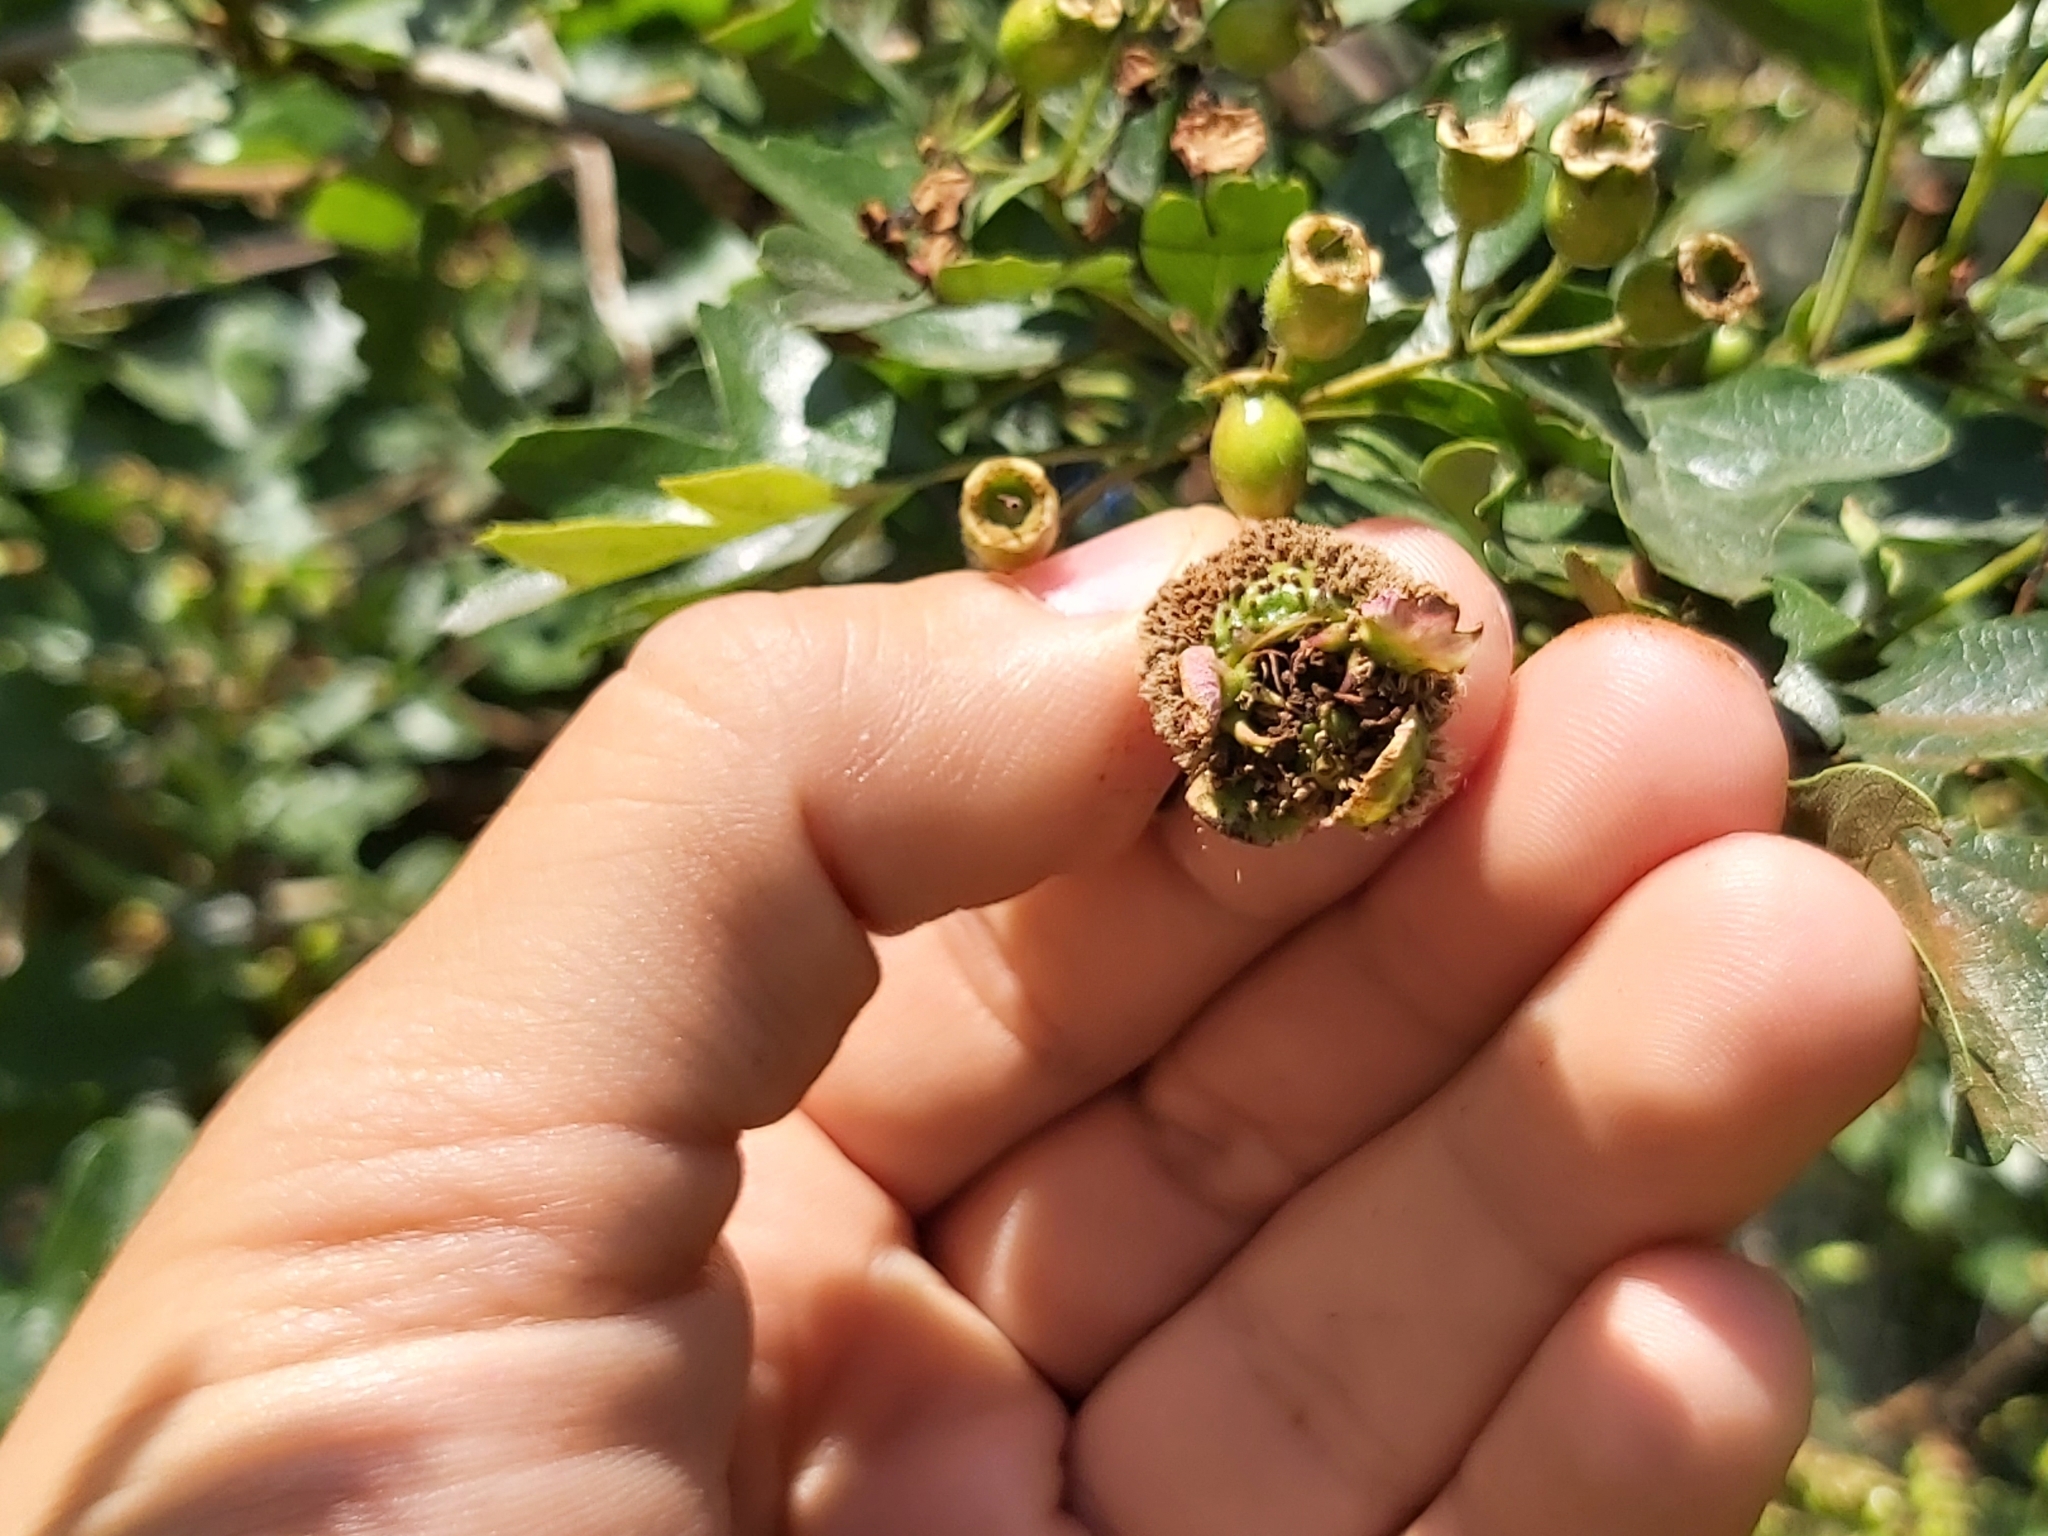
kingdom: Fungi
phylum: Basidiomycota
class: Pucciniomycetes
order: Pucciniales
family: Gymnosporangiaceae
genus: Gymnosporangium
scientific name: Gymnosporangium clavariiforme
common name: Tongues of fire
